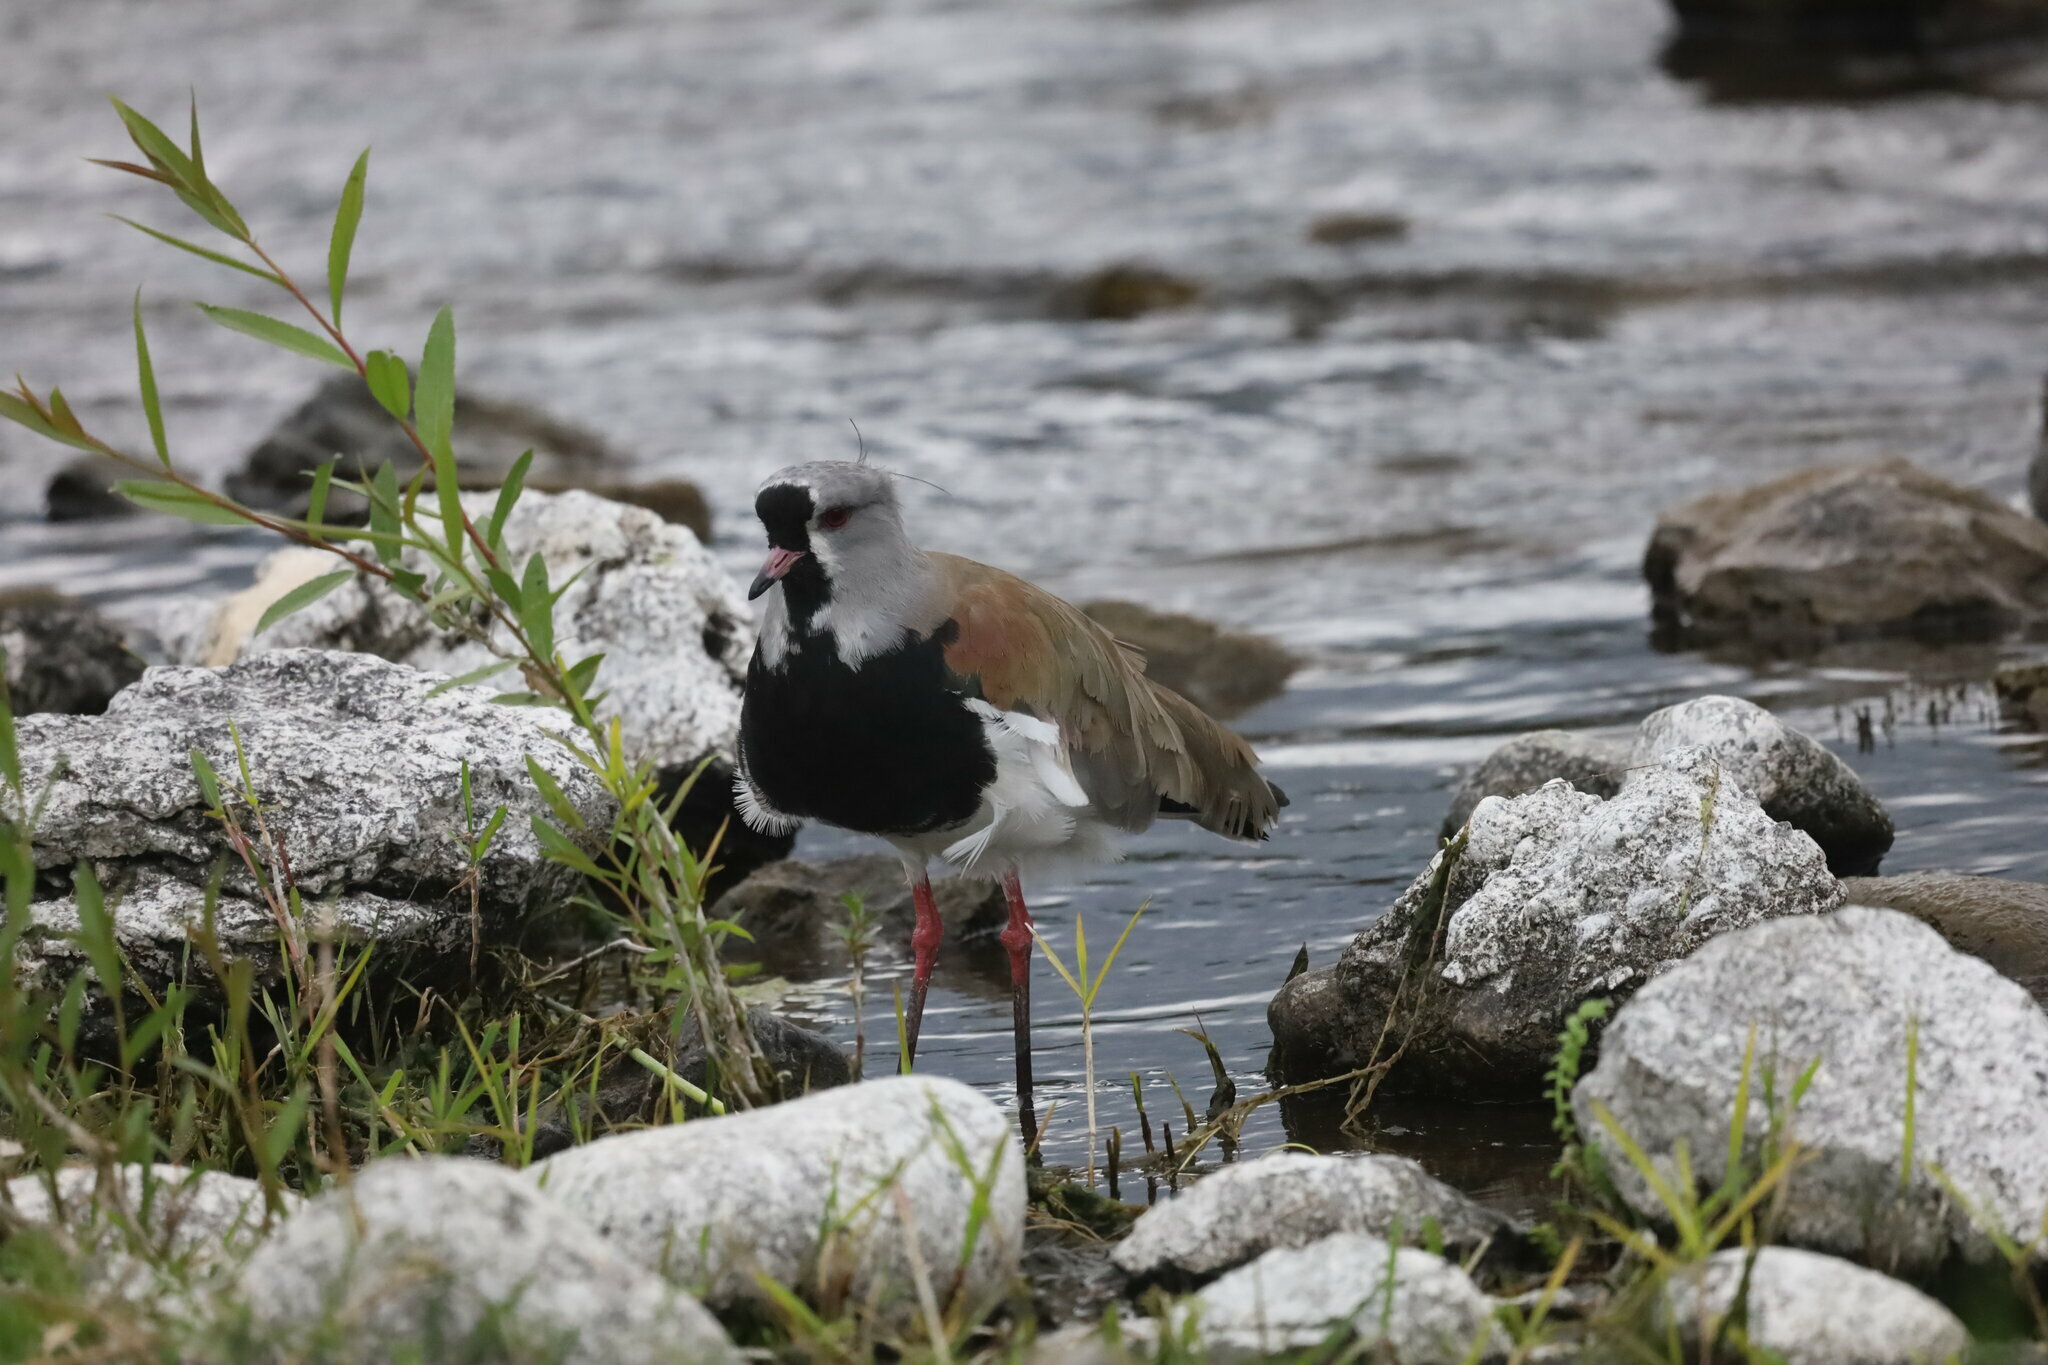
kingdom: Animalia
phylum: Chordata
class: Aves
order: Charadriiformes
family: Charadriidae
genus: Vanellus
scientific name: Vanellus chilensis
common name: Southern lapwing
